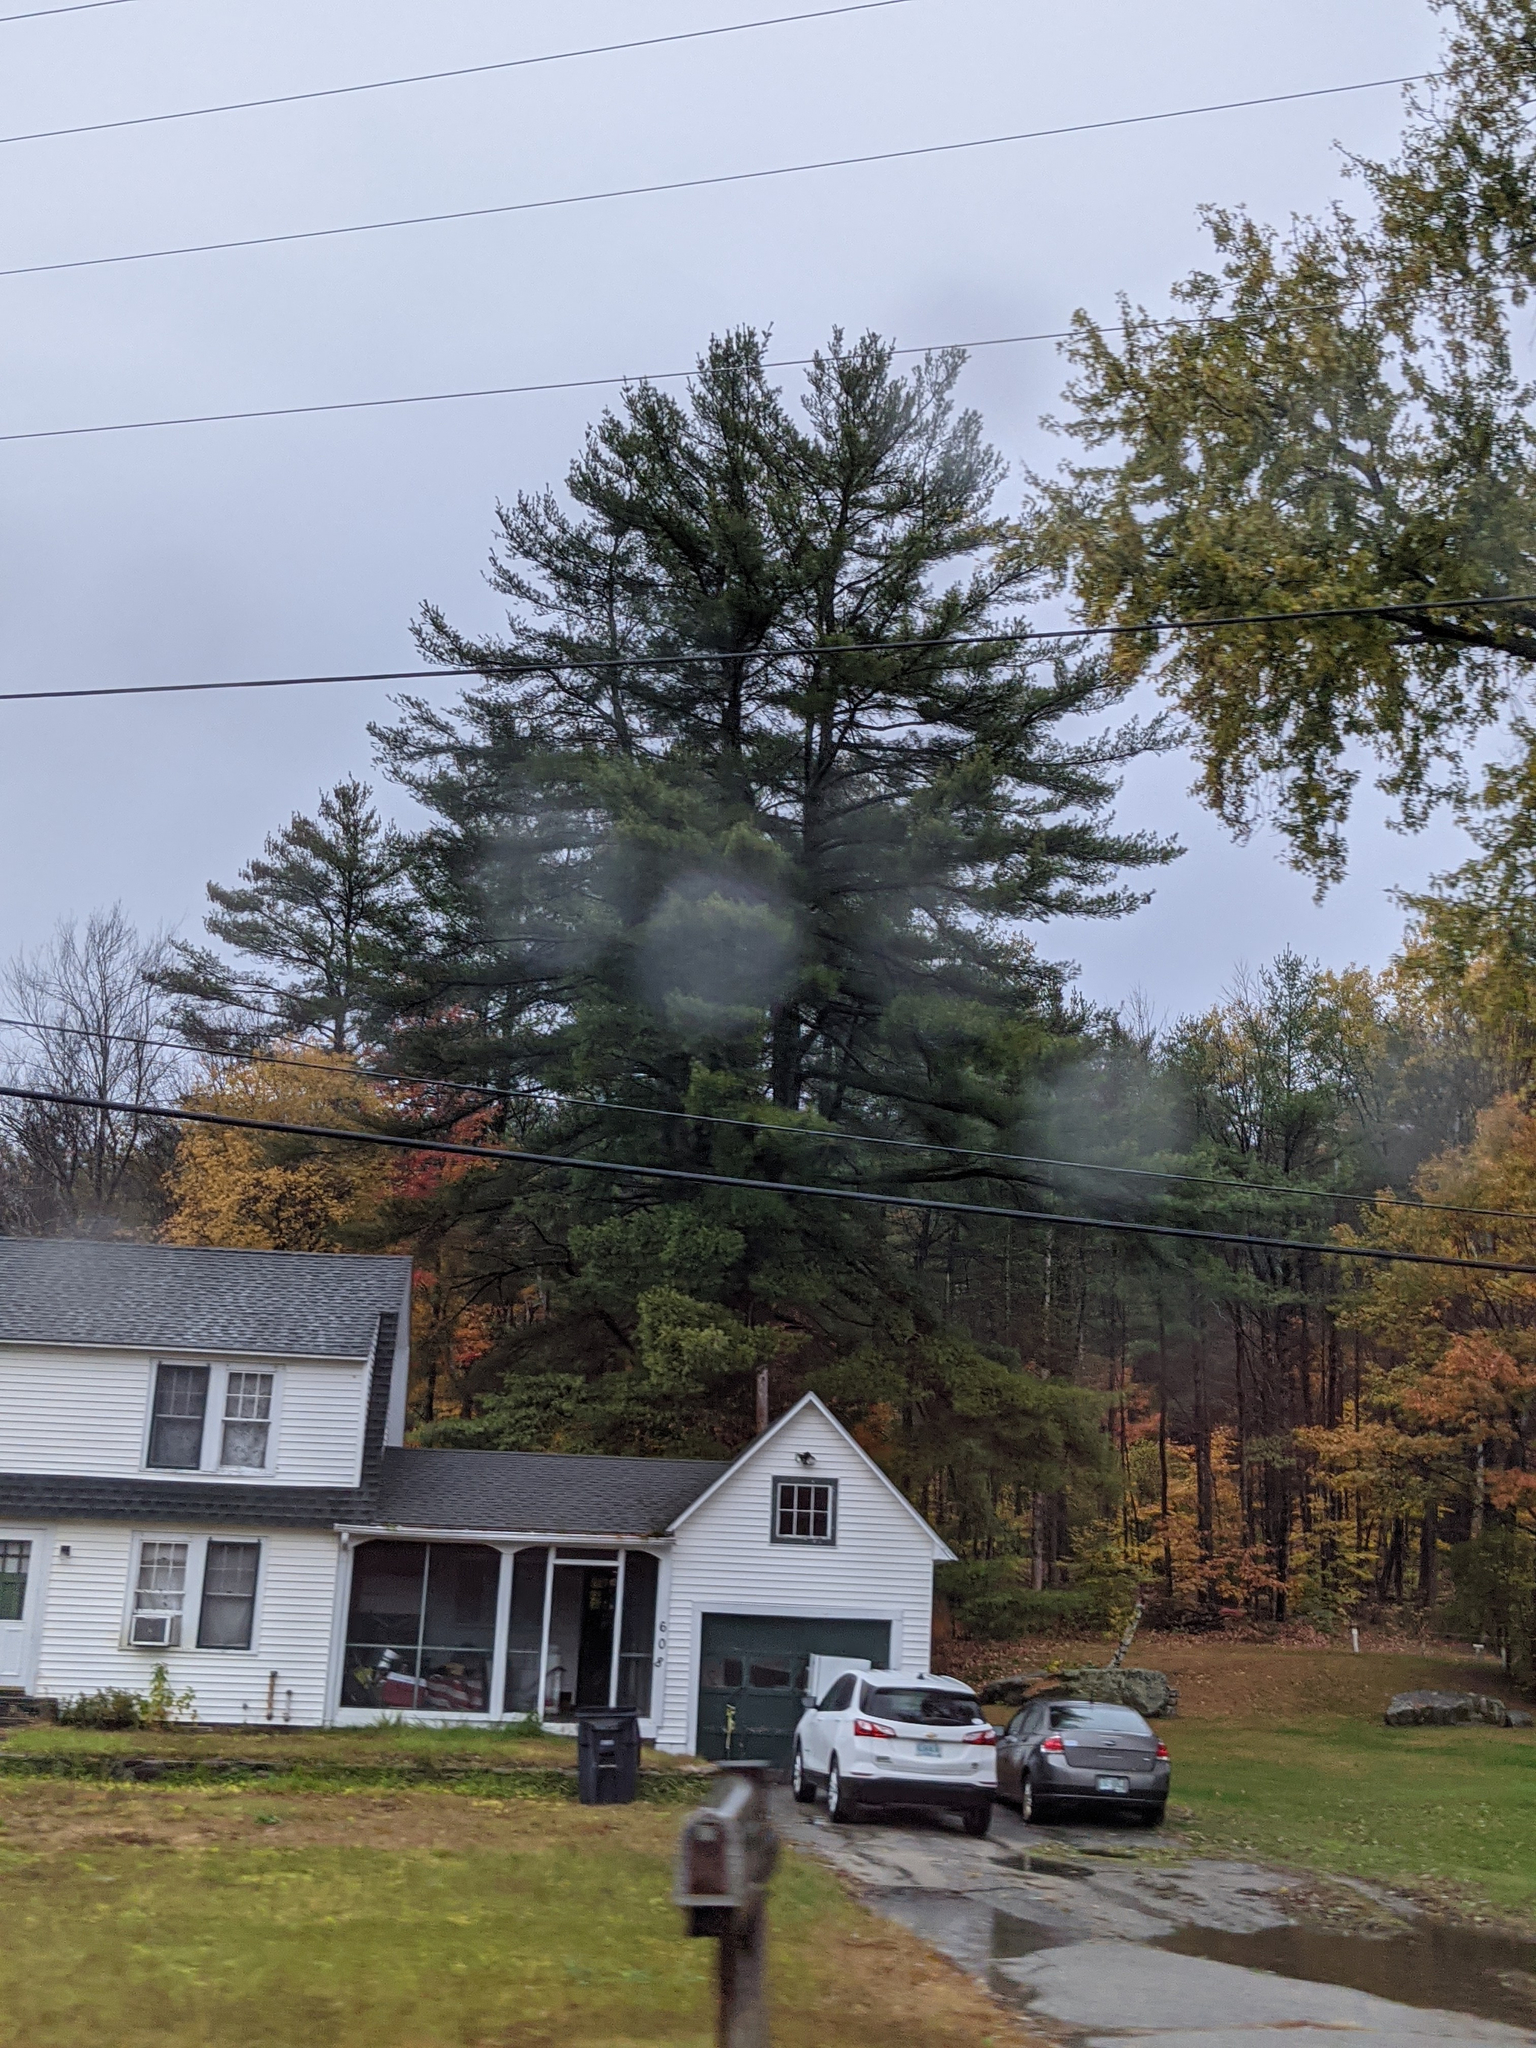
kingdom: Plantae
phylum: Tracheophyta
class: Pinopsida
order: Pinales
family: Pinaceae
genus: Pinus
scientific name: Pinus strobus
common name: Weymouth pine
